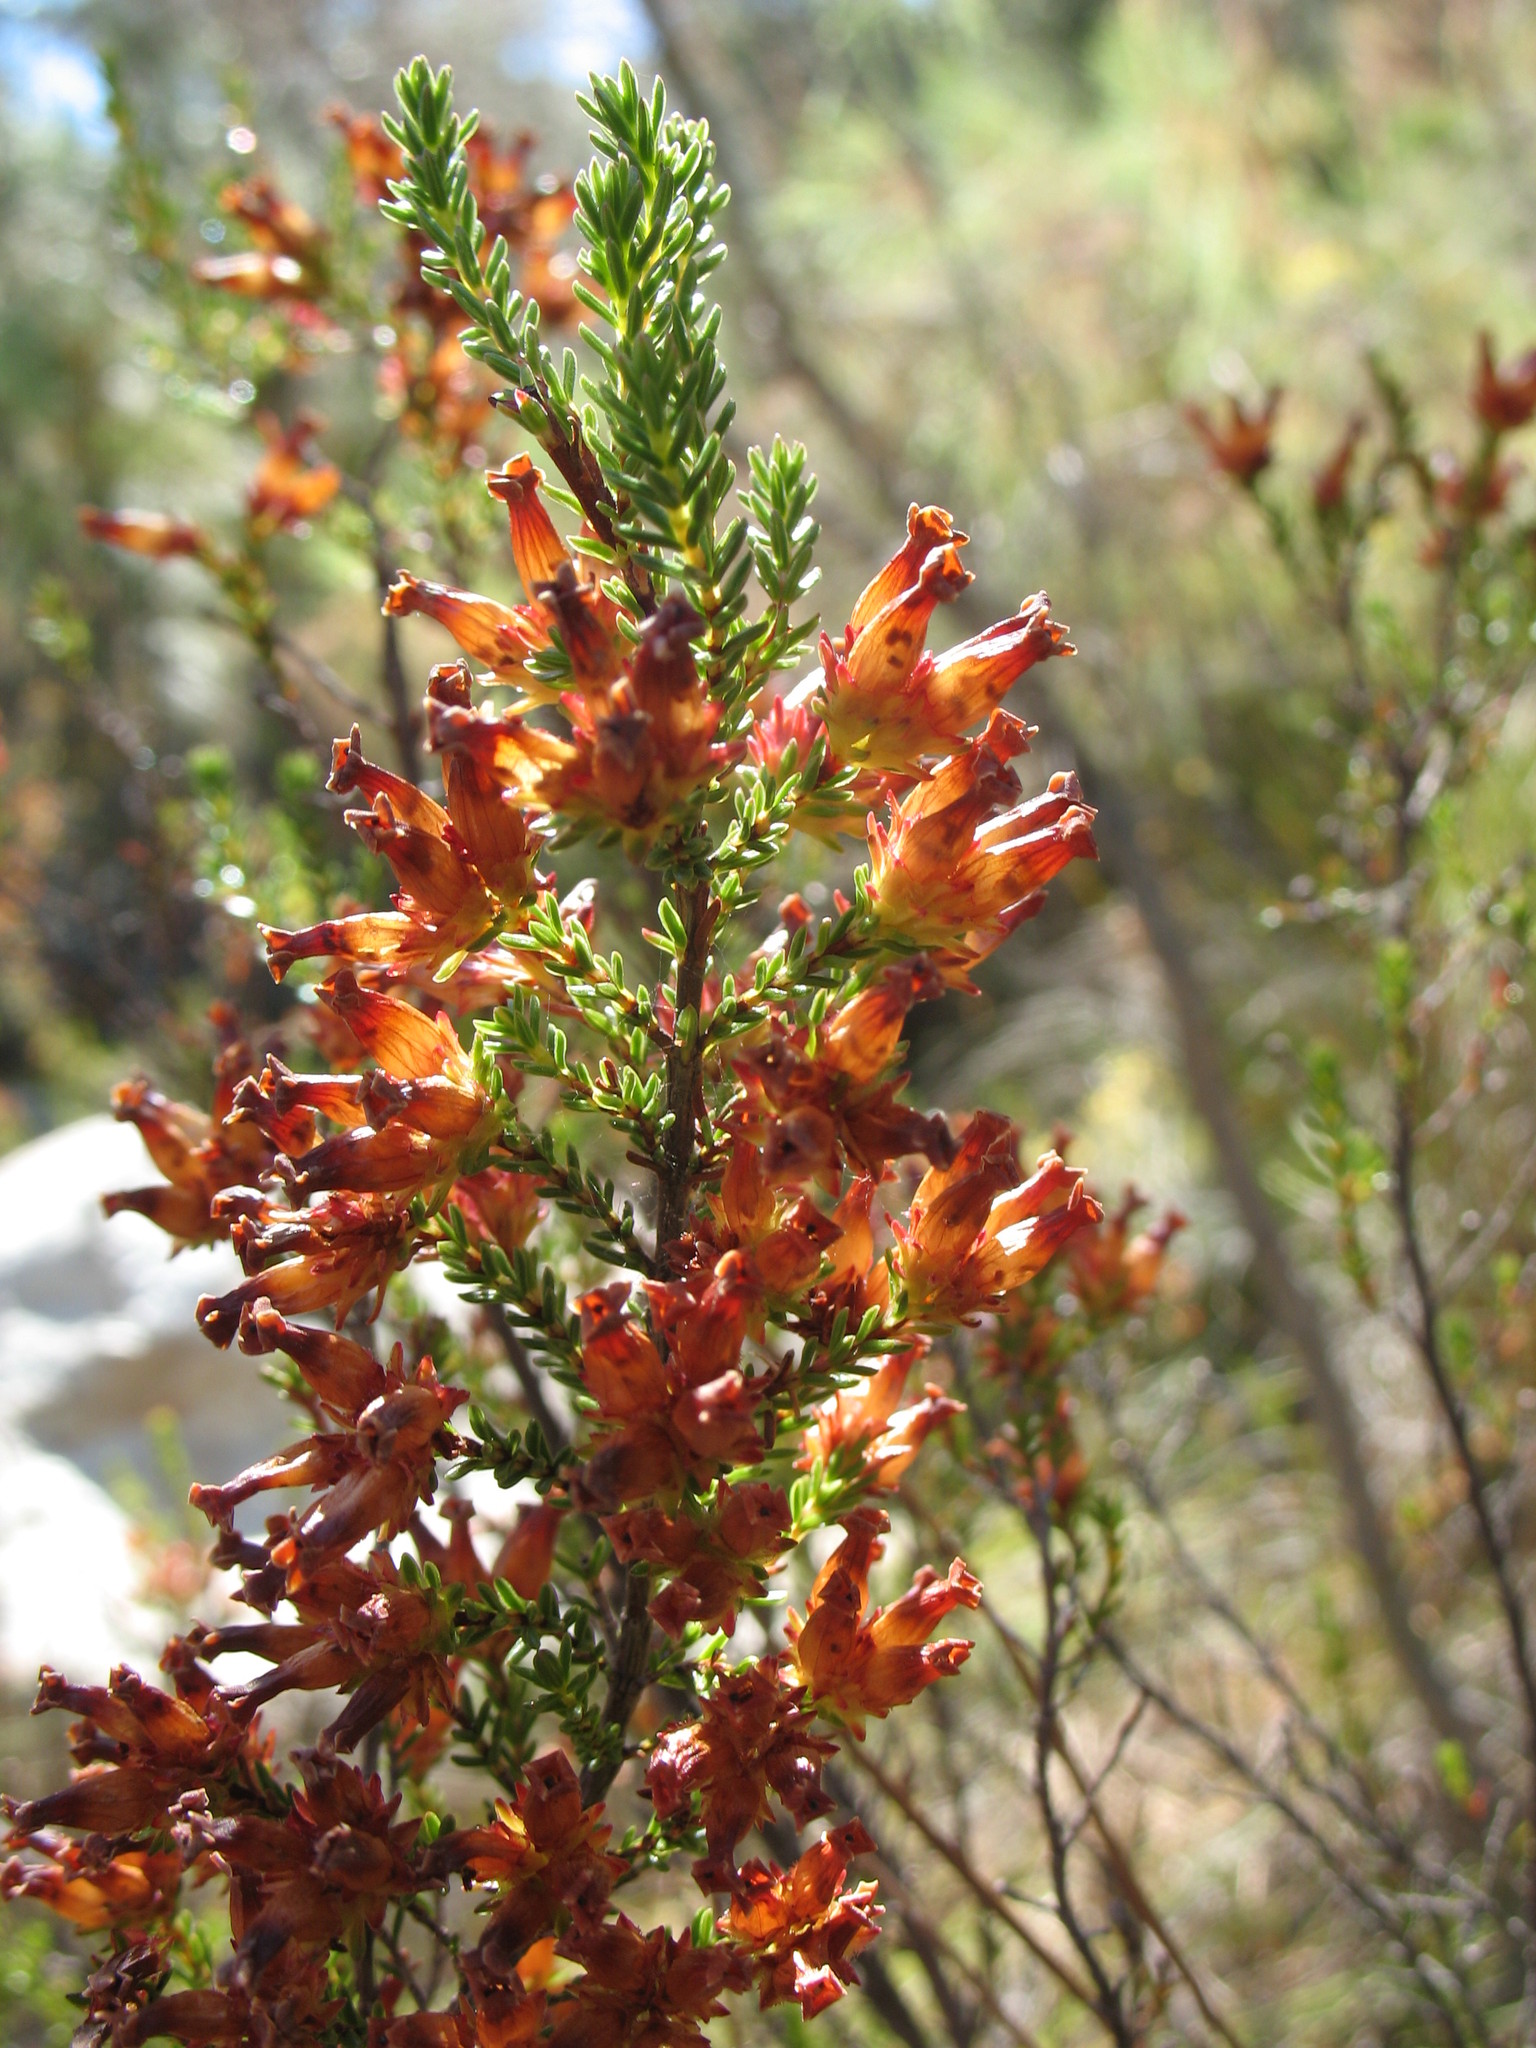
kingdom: Plantae
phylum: Tracheophyta
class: Magnoliopsida
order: Ericales
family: Ericaceae
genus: Erica
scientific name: Erica denticulata
